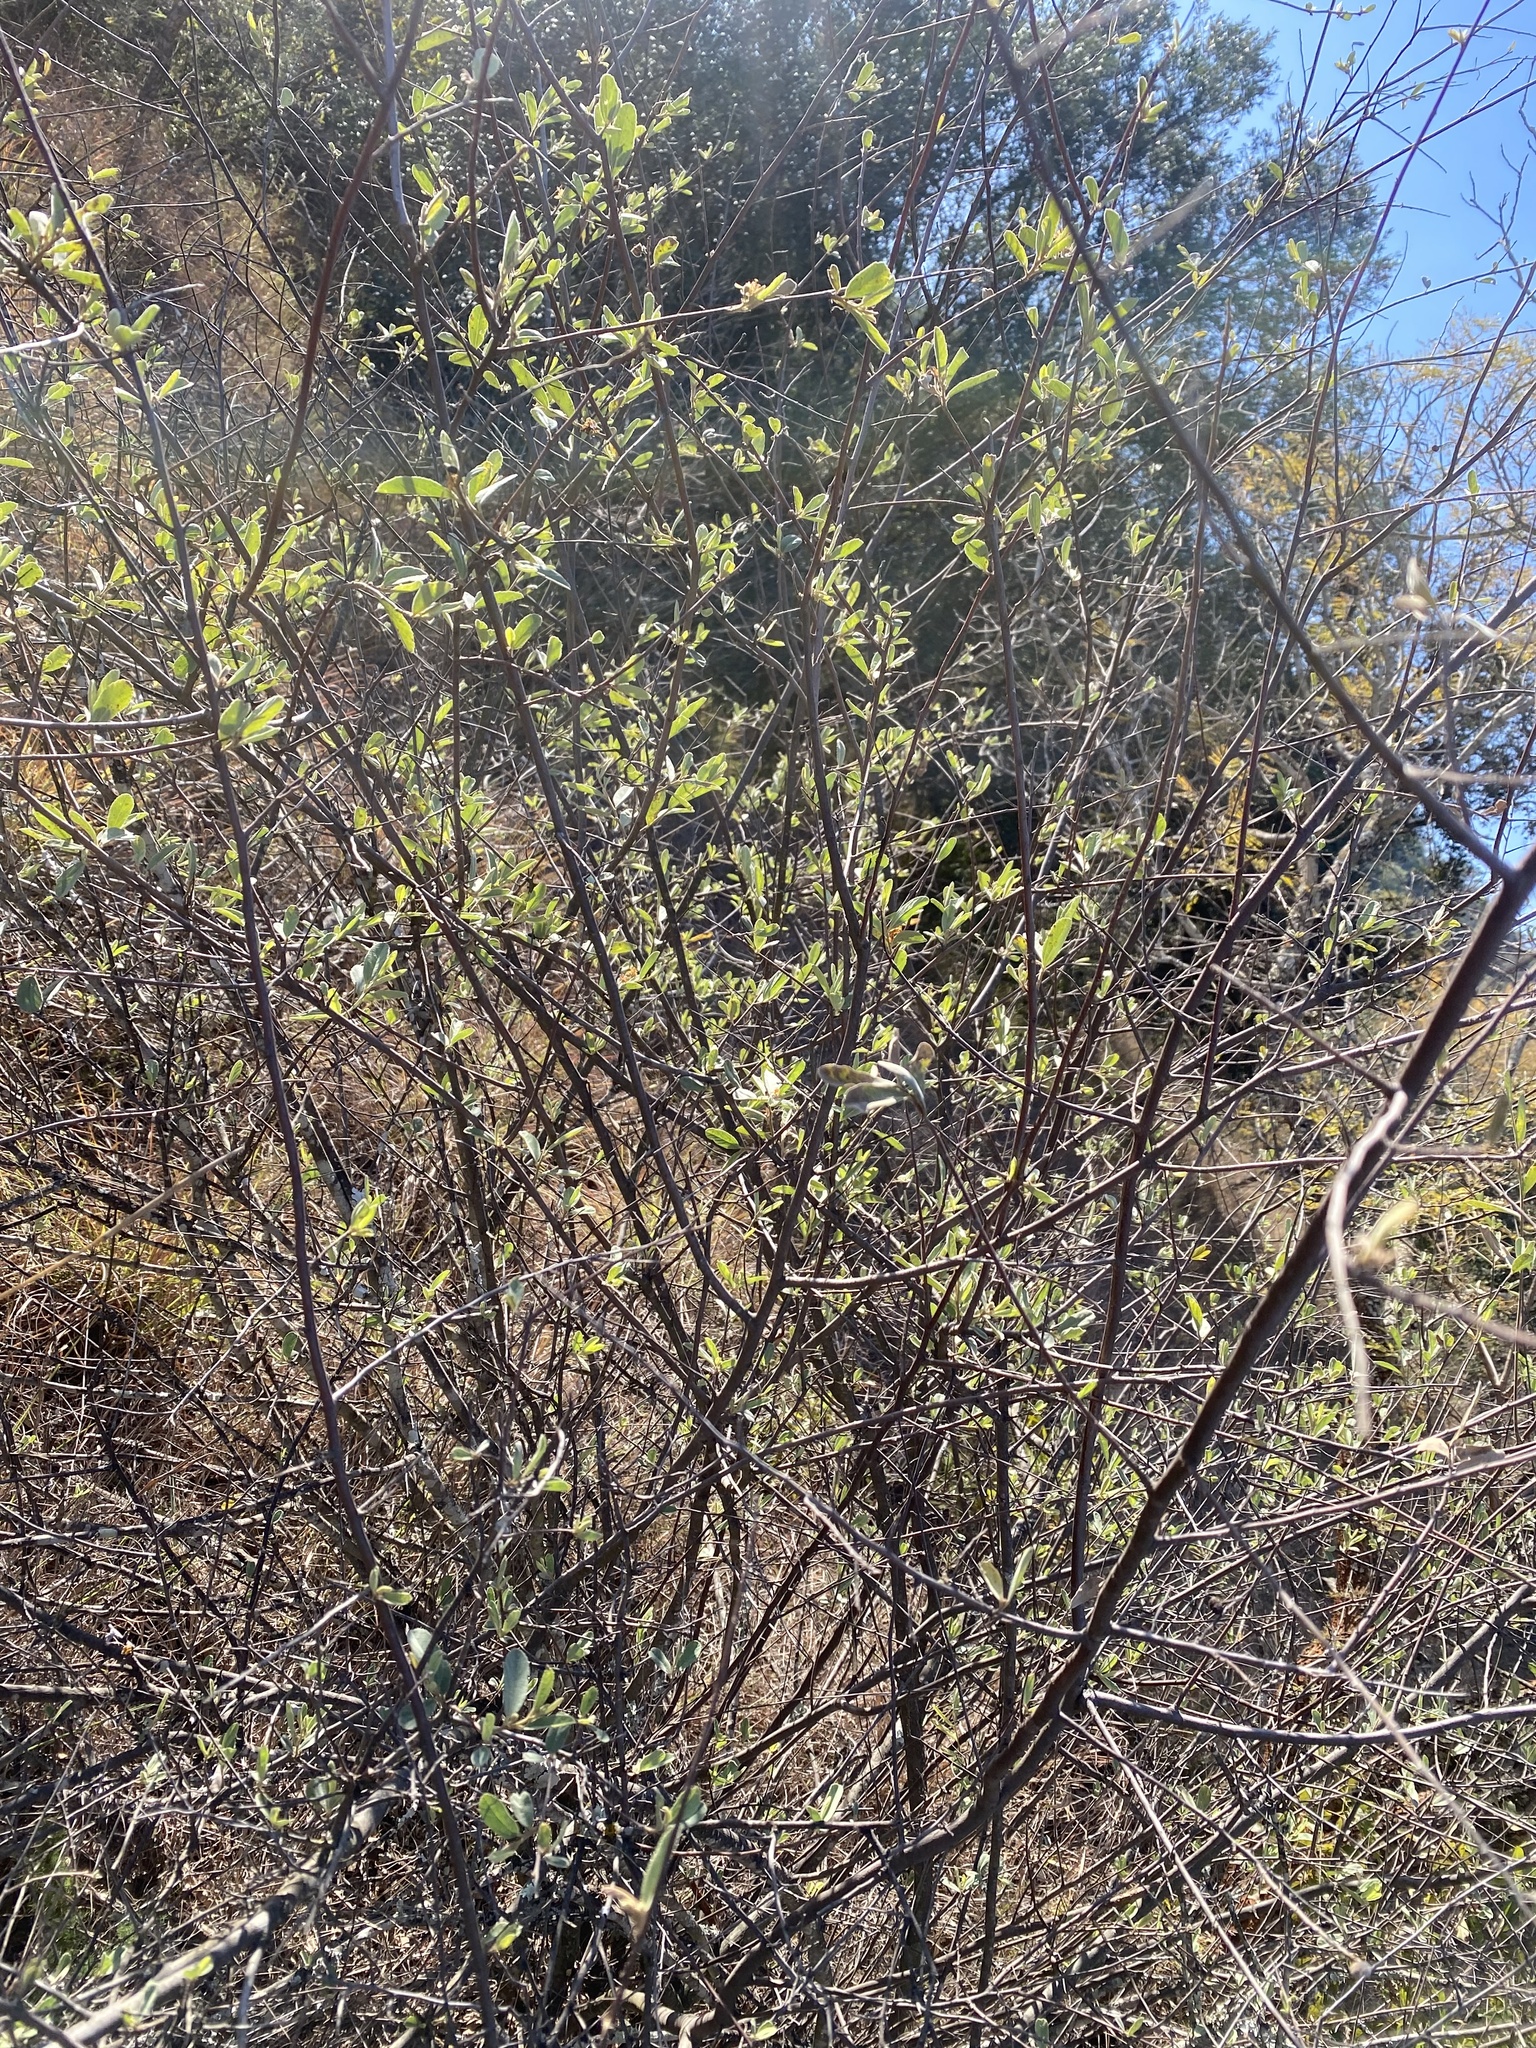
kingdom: Plantae
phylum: Tracheophyta
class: Magnoliopsida
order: Malvales
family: Malvaceae
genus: Grewia
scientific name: Grewia flava
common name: Brandy bush
